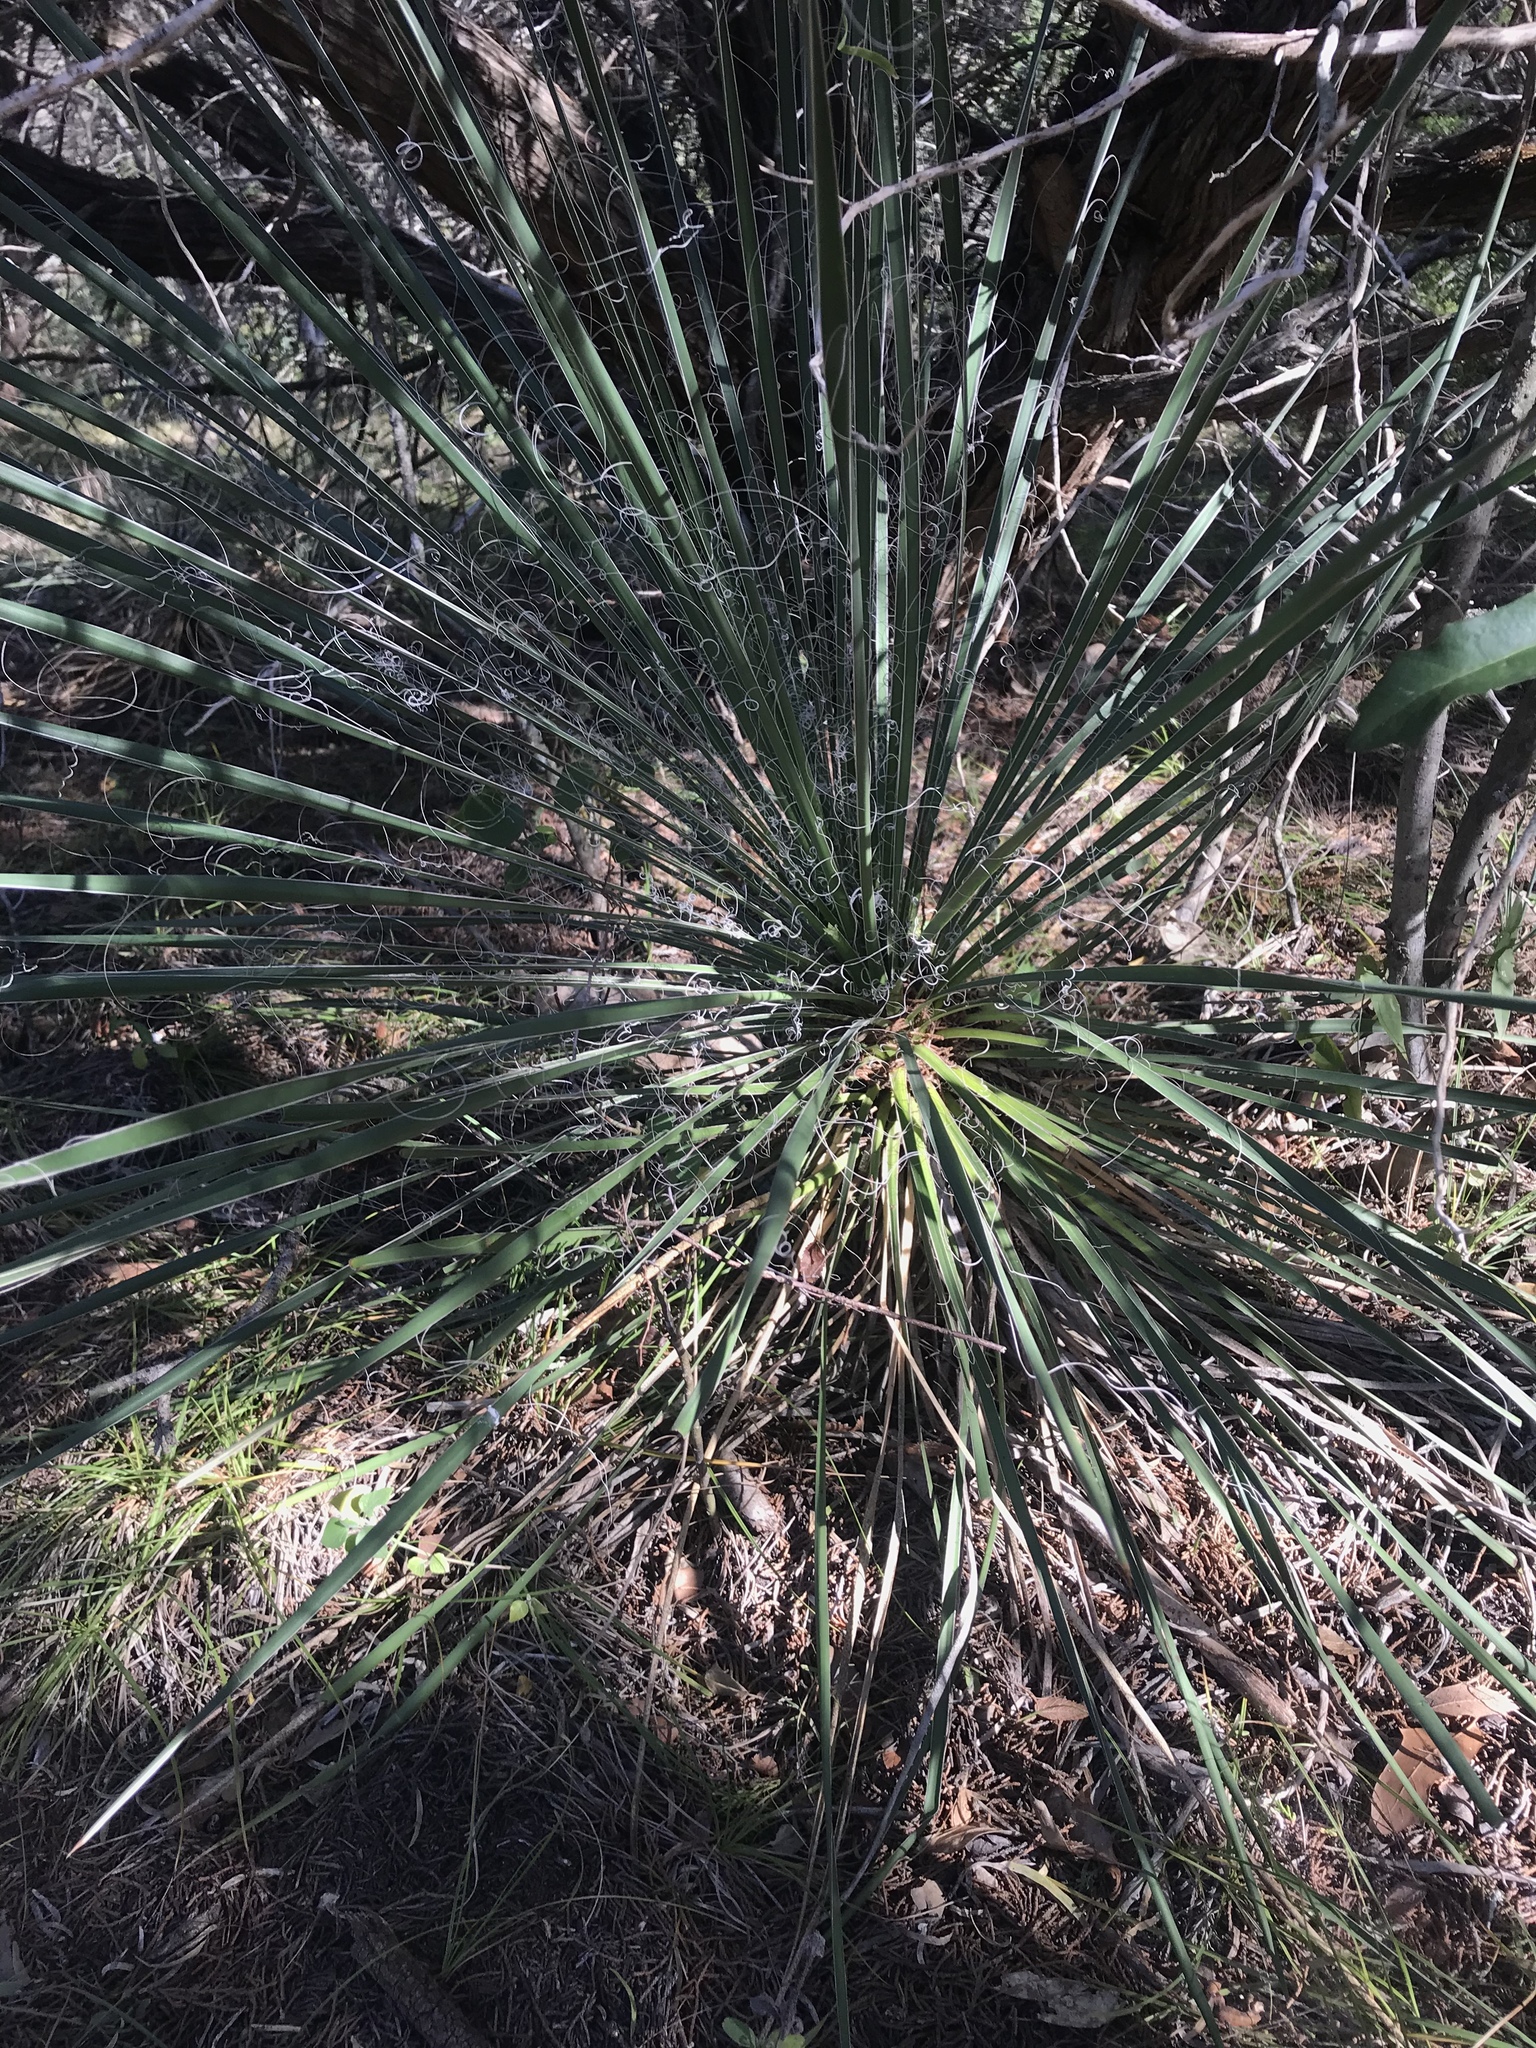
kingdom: Plantae
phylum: Tracheophyta
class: Liliopsida
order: Asparagales
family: Asparagaceae
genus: Yucca
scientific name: Yucca constricta
